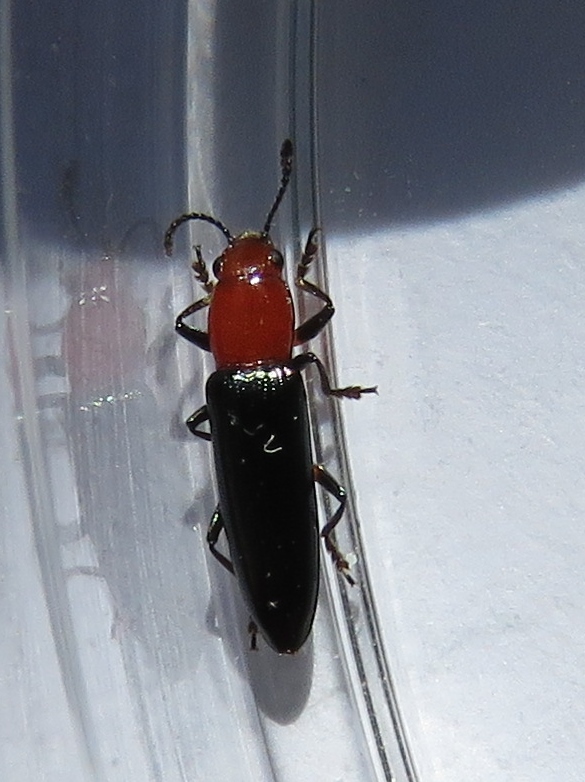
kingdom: Animalia
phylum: Arthropoda
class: Insecta
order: Coleoptera
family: Erotylidae
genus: Languria
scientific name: Languria mozardi
